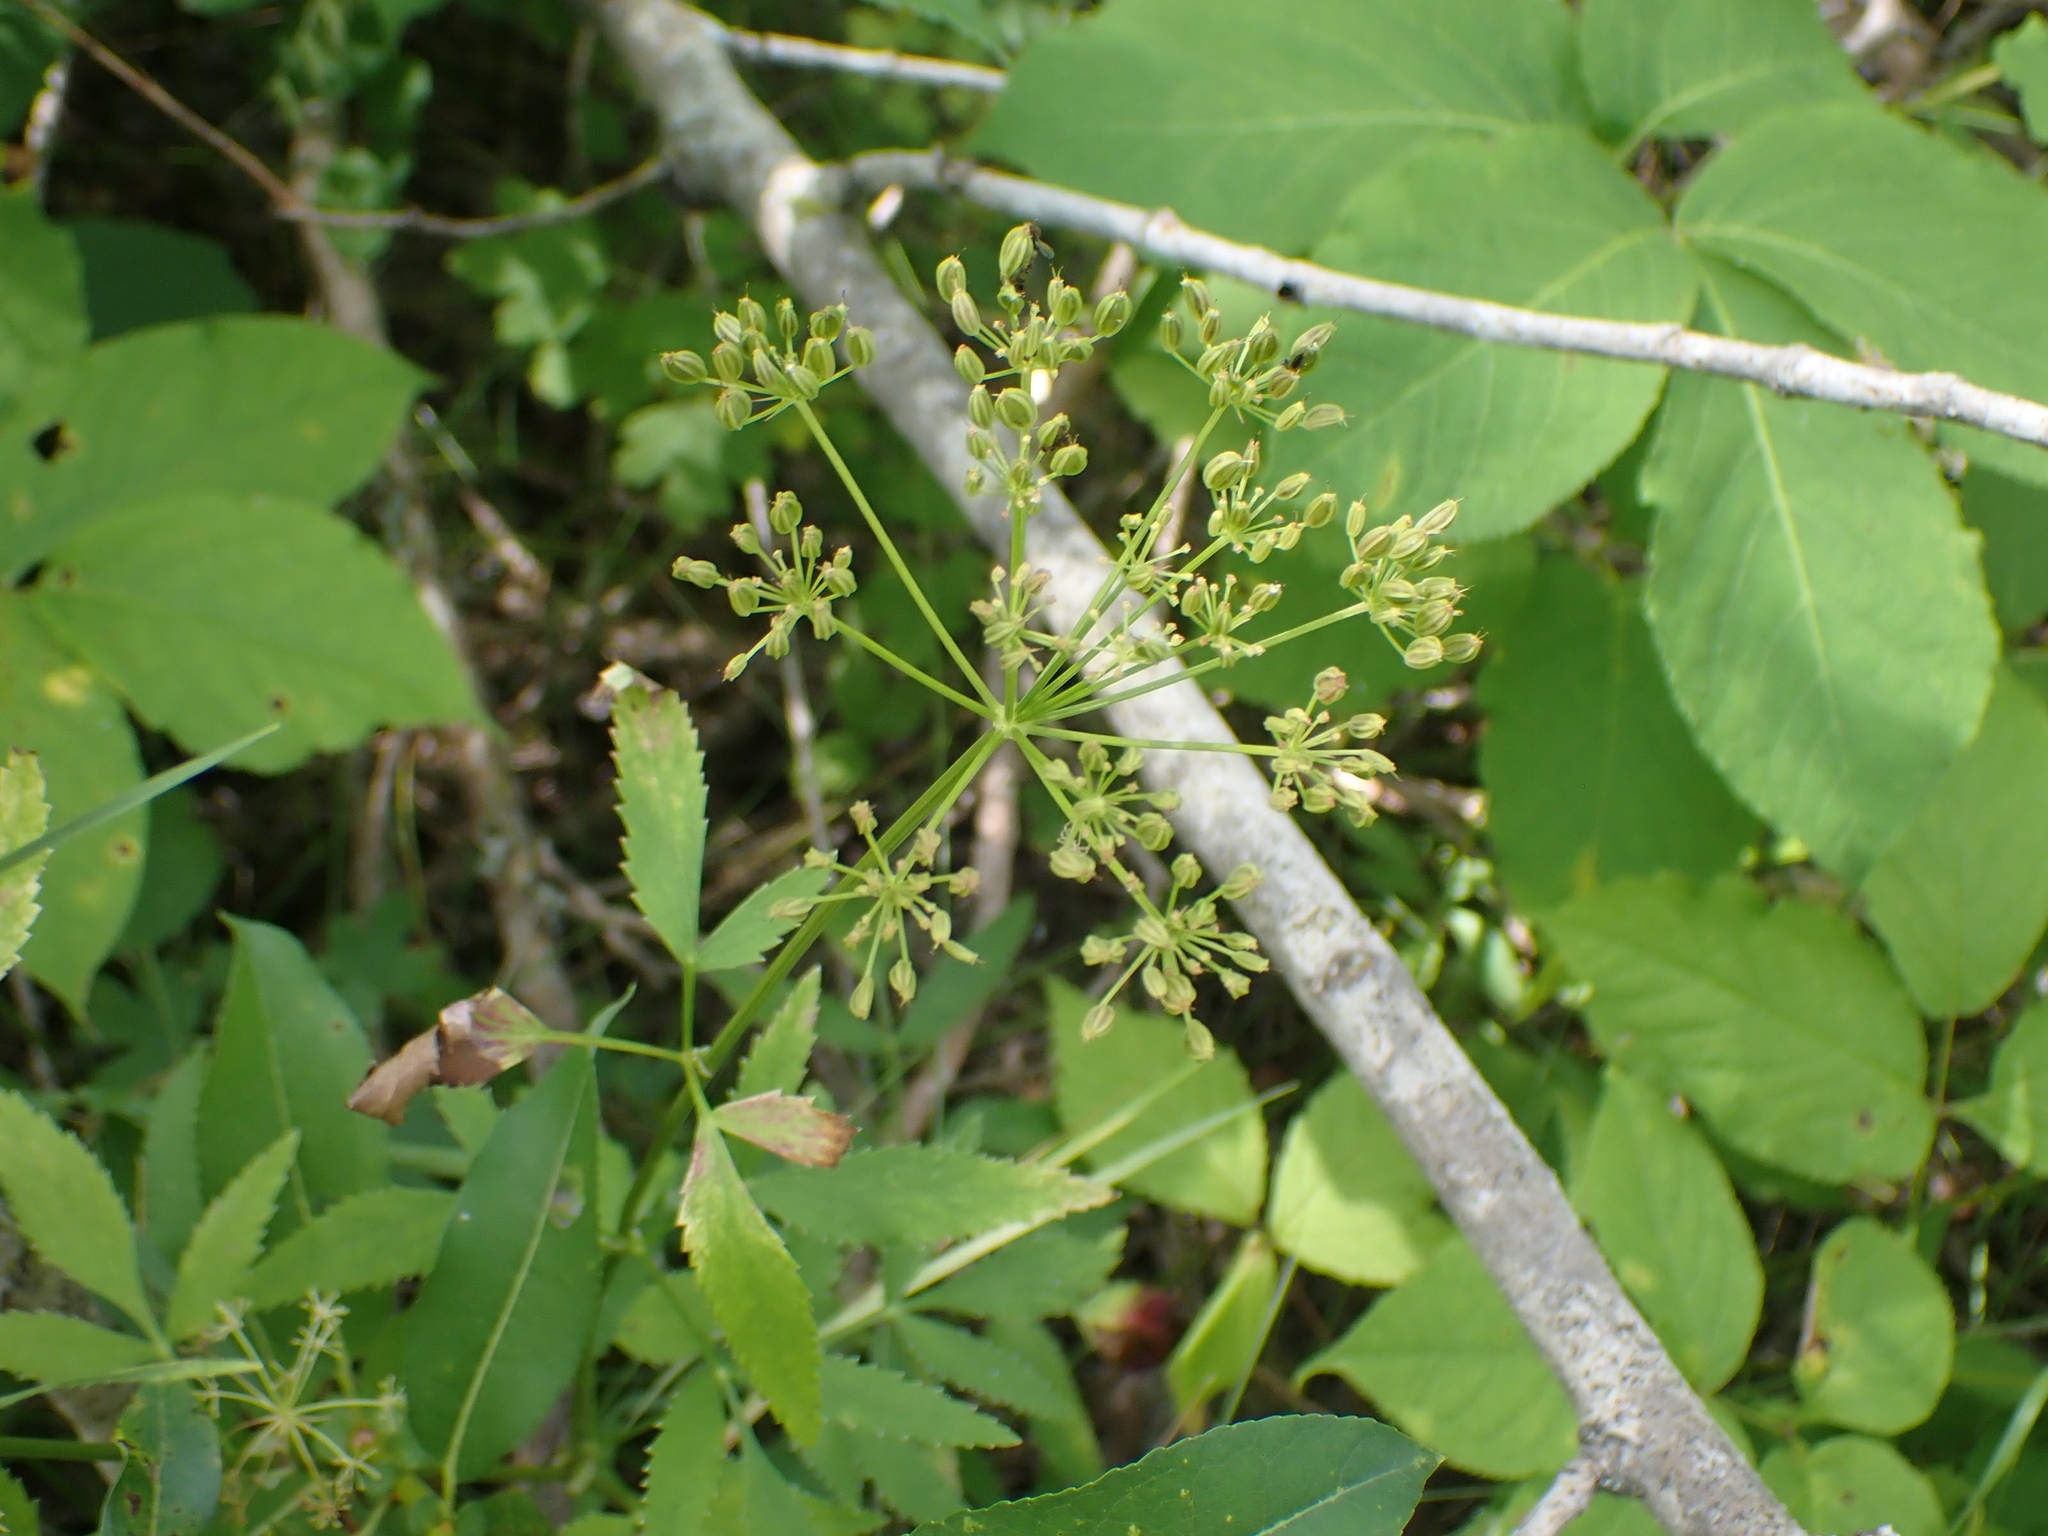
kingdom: Plantae
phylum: Tracheophyta
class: Magnoliopsida
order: Apiales
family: Apiaceae
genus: Zizia
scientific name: Zizia aurea
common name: Golden alexanders
